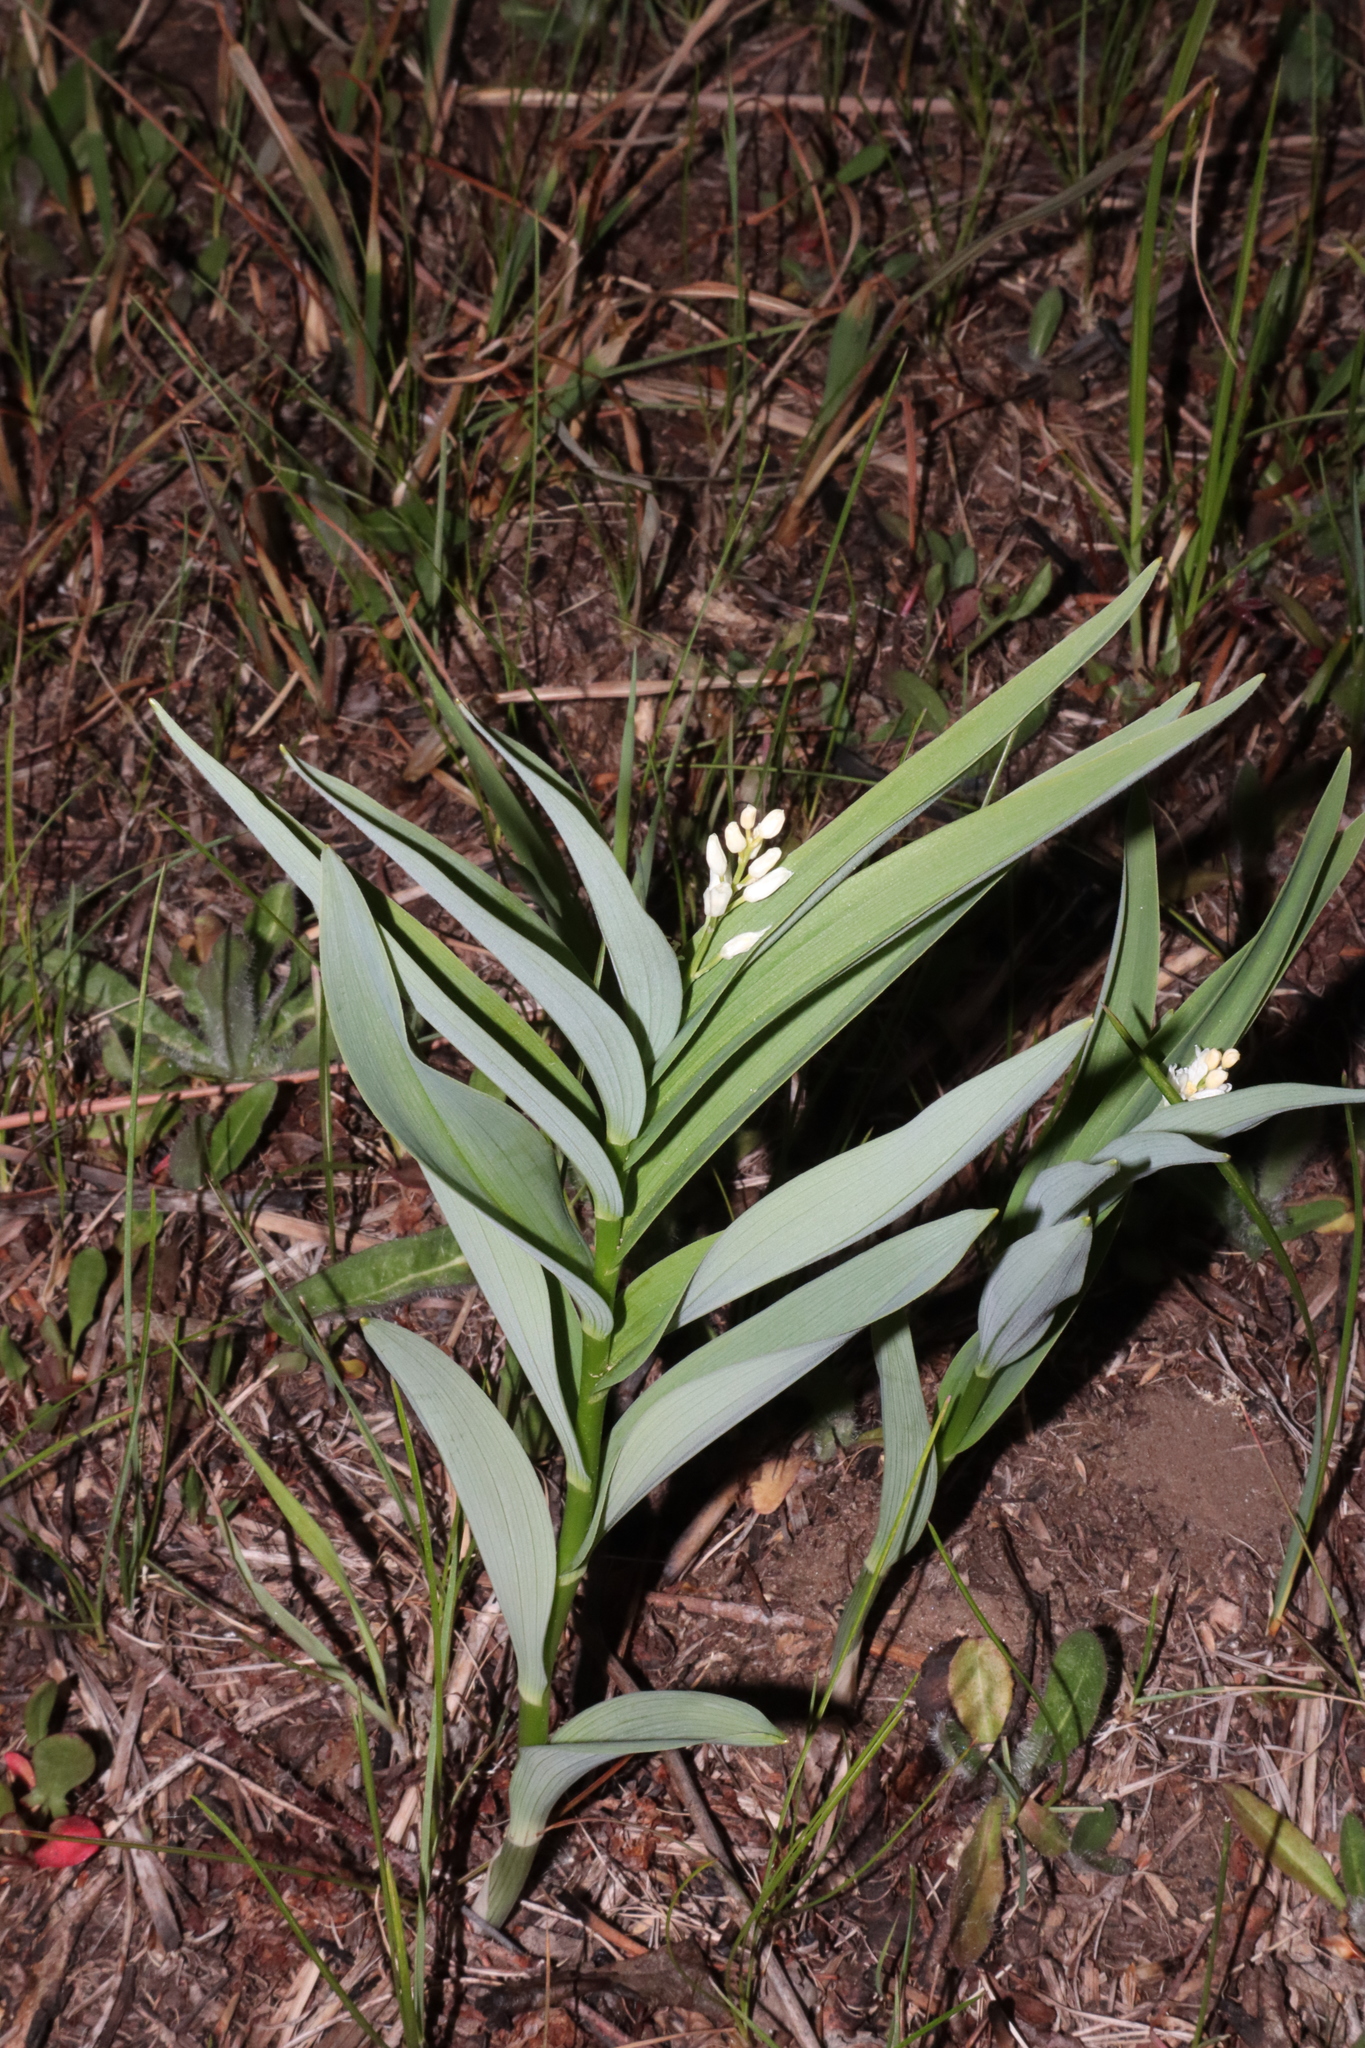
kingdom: Plantae
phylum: Tracheophyta
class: Liliopsida
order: Asparagales
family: Asparagaceae
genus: Maianthemum
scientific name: Maianthemum stellatum
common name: Little false solomon's seal
